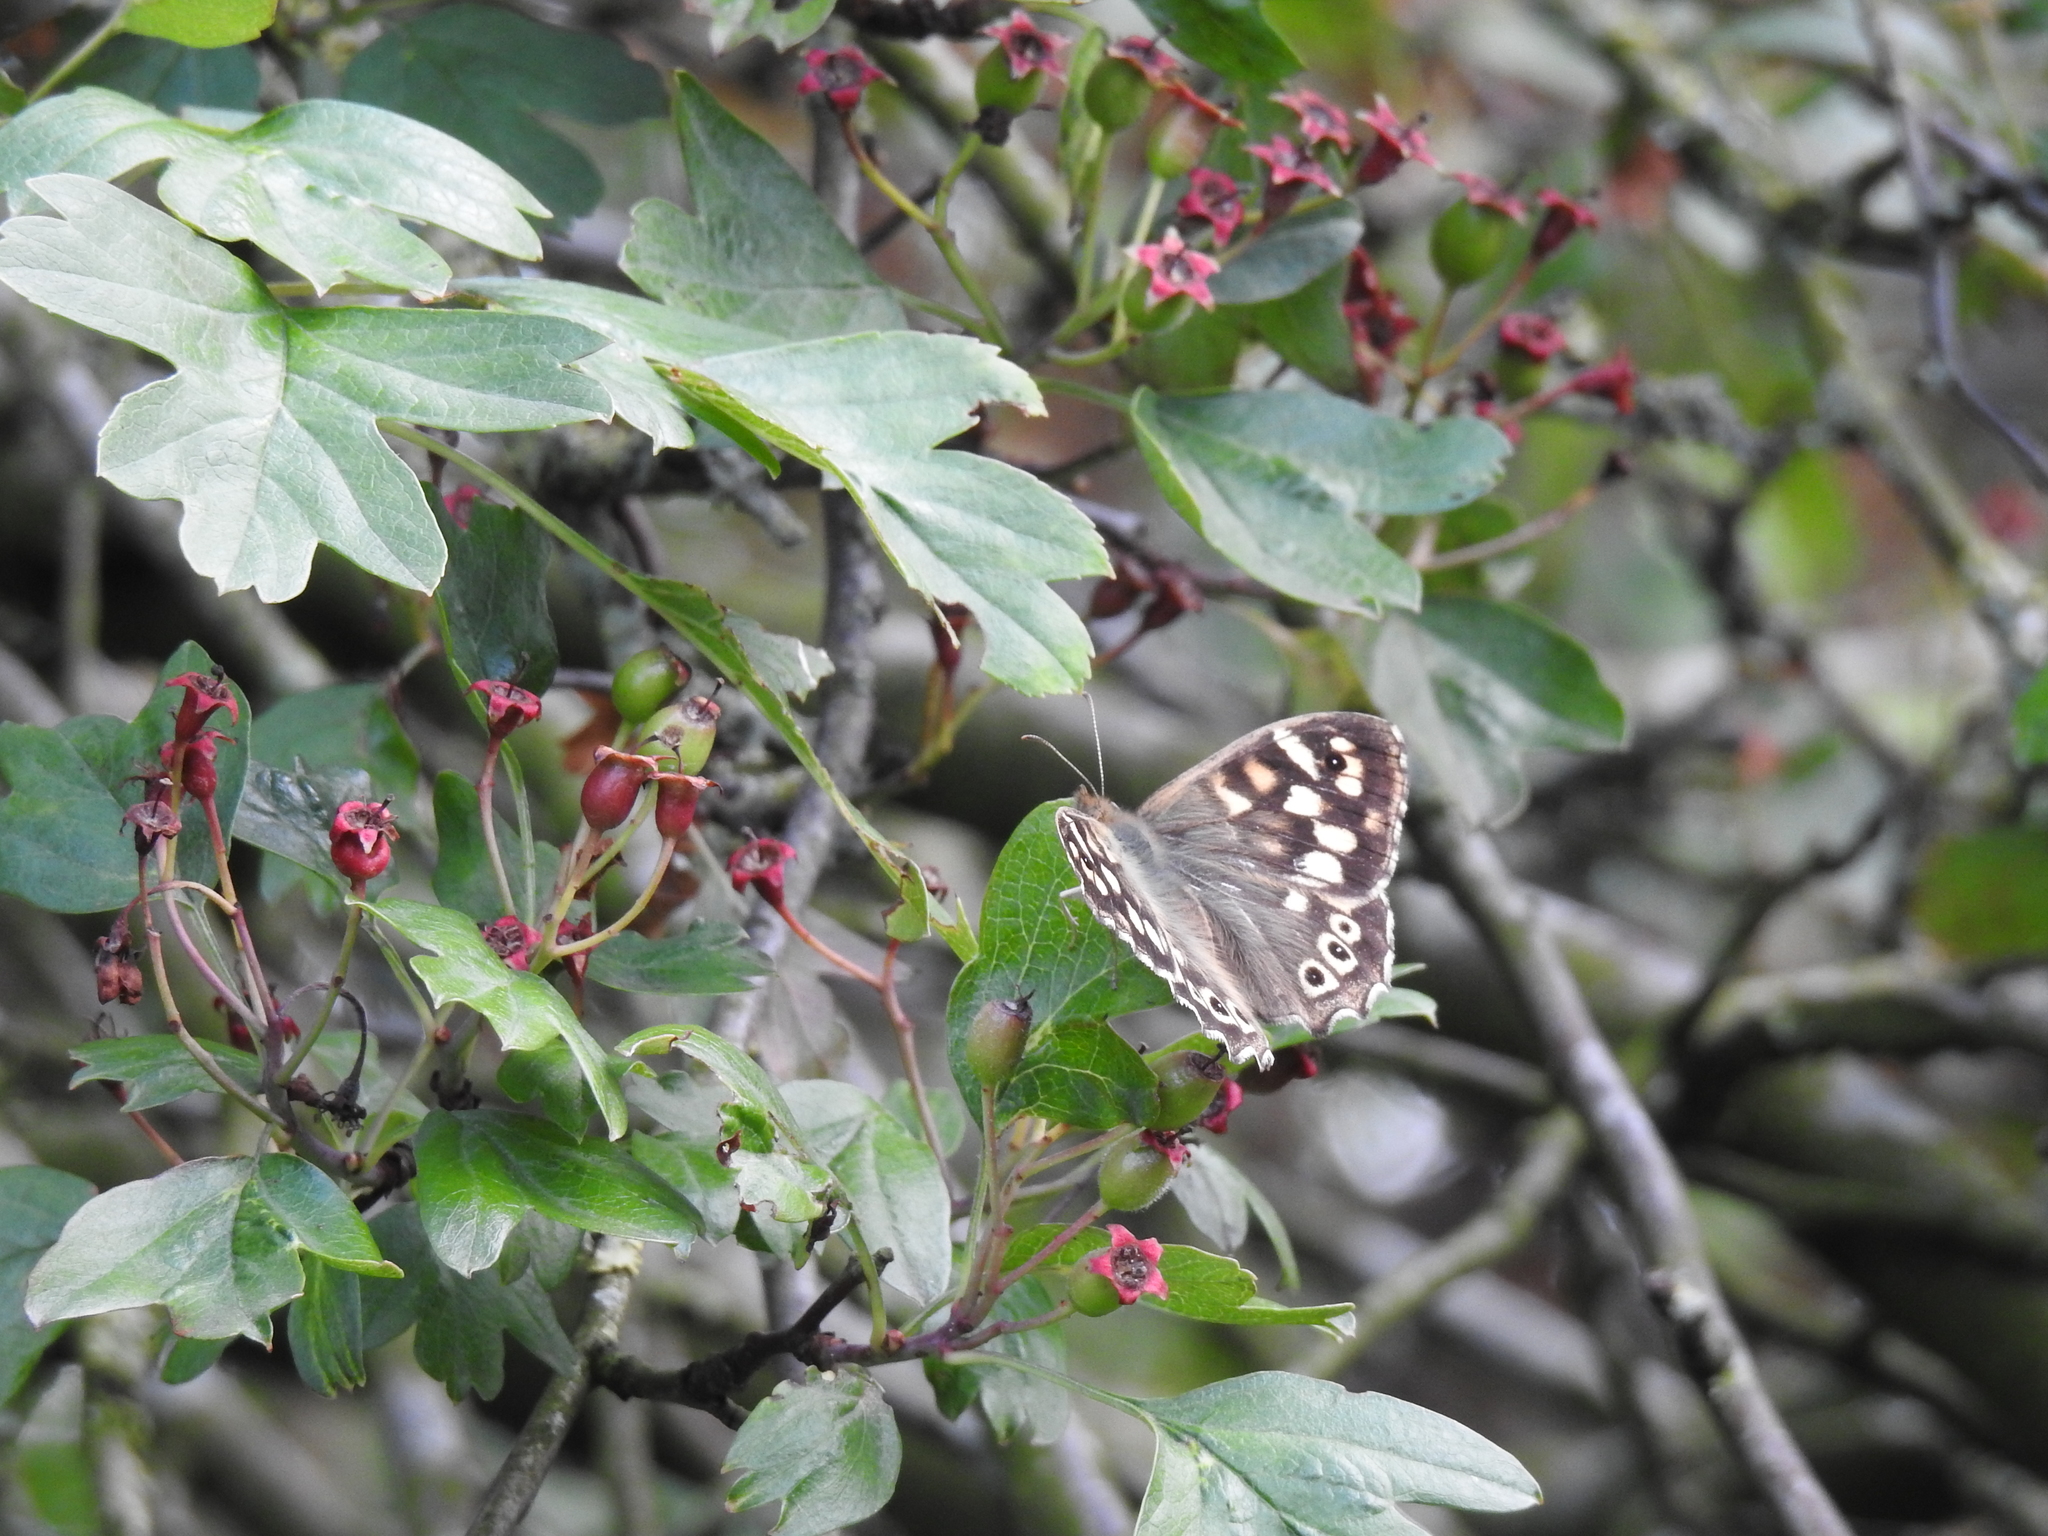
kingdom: Animalia
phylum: Arthropoda
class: Insecta
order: Lepidoptera
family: Nymphalidae
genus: Pararge
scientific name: Pararge aegeria
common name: Speckled wood
